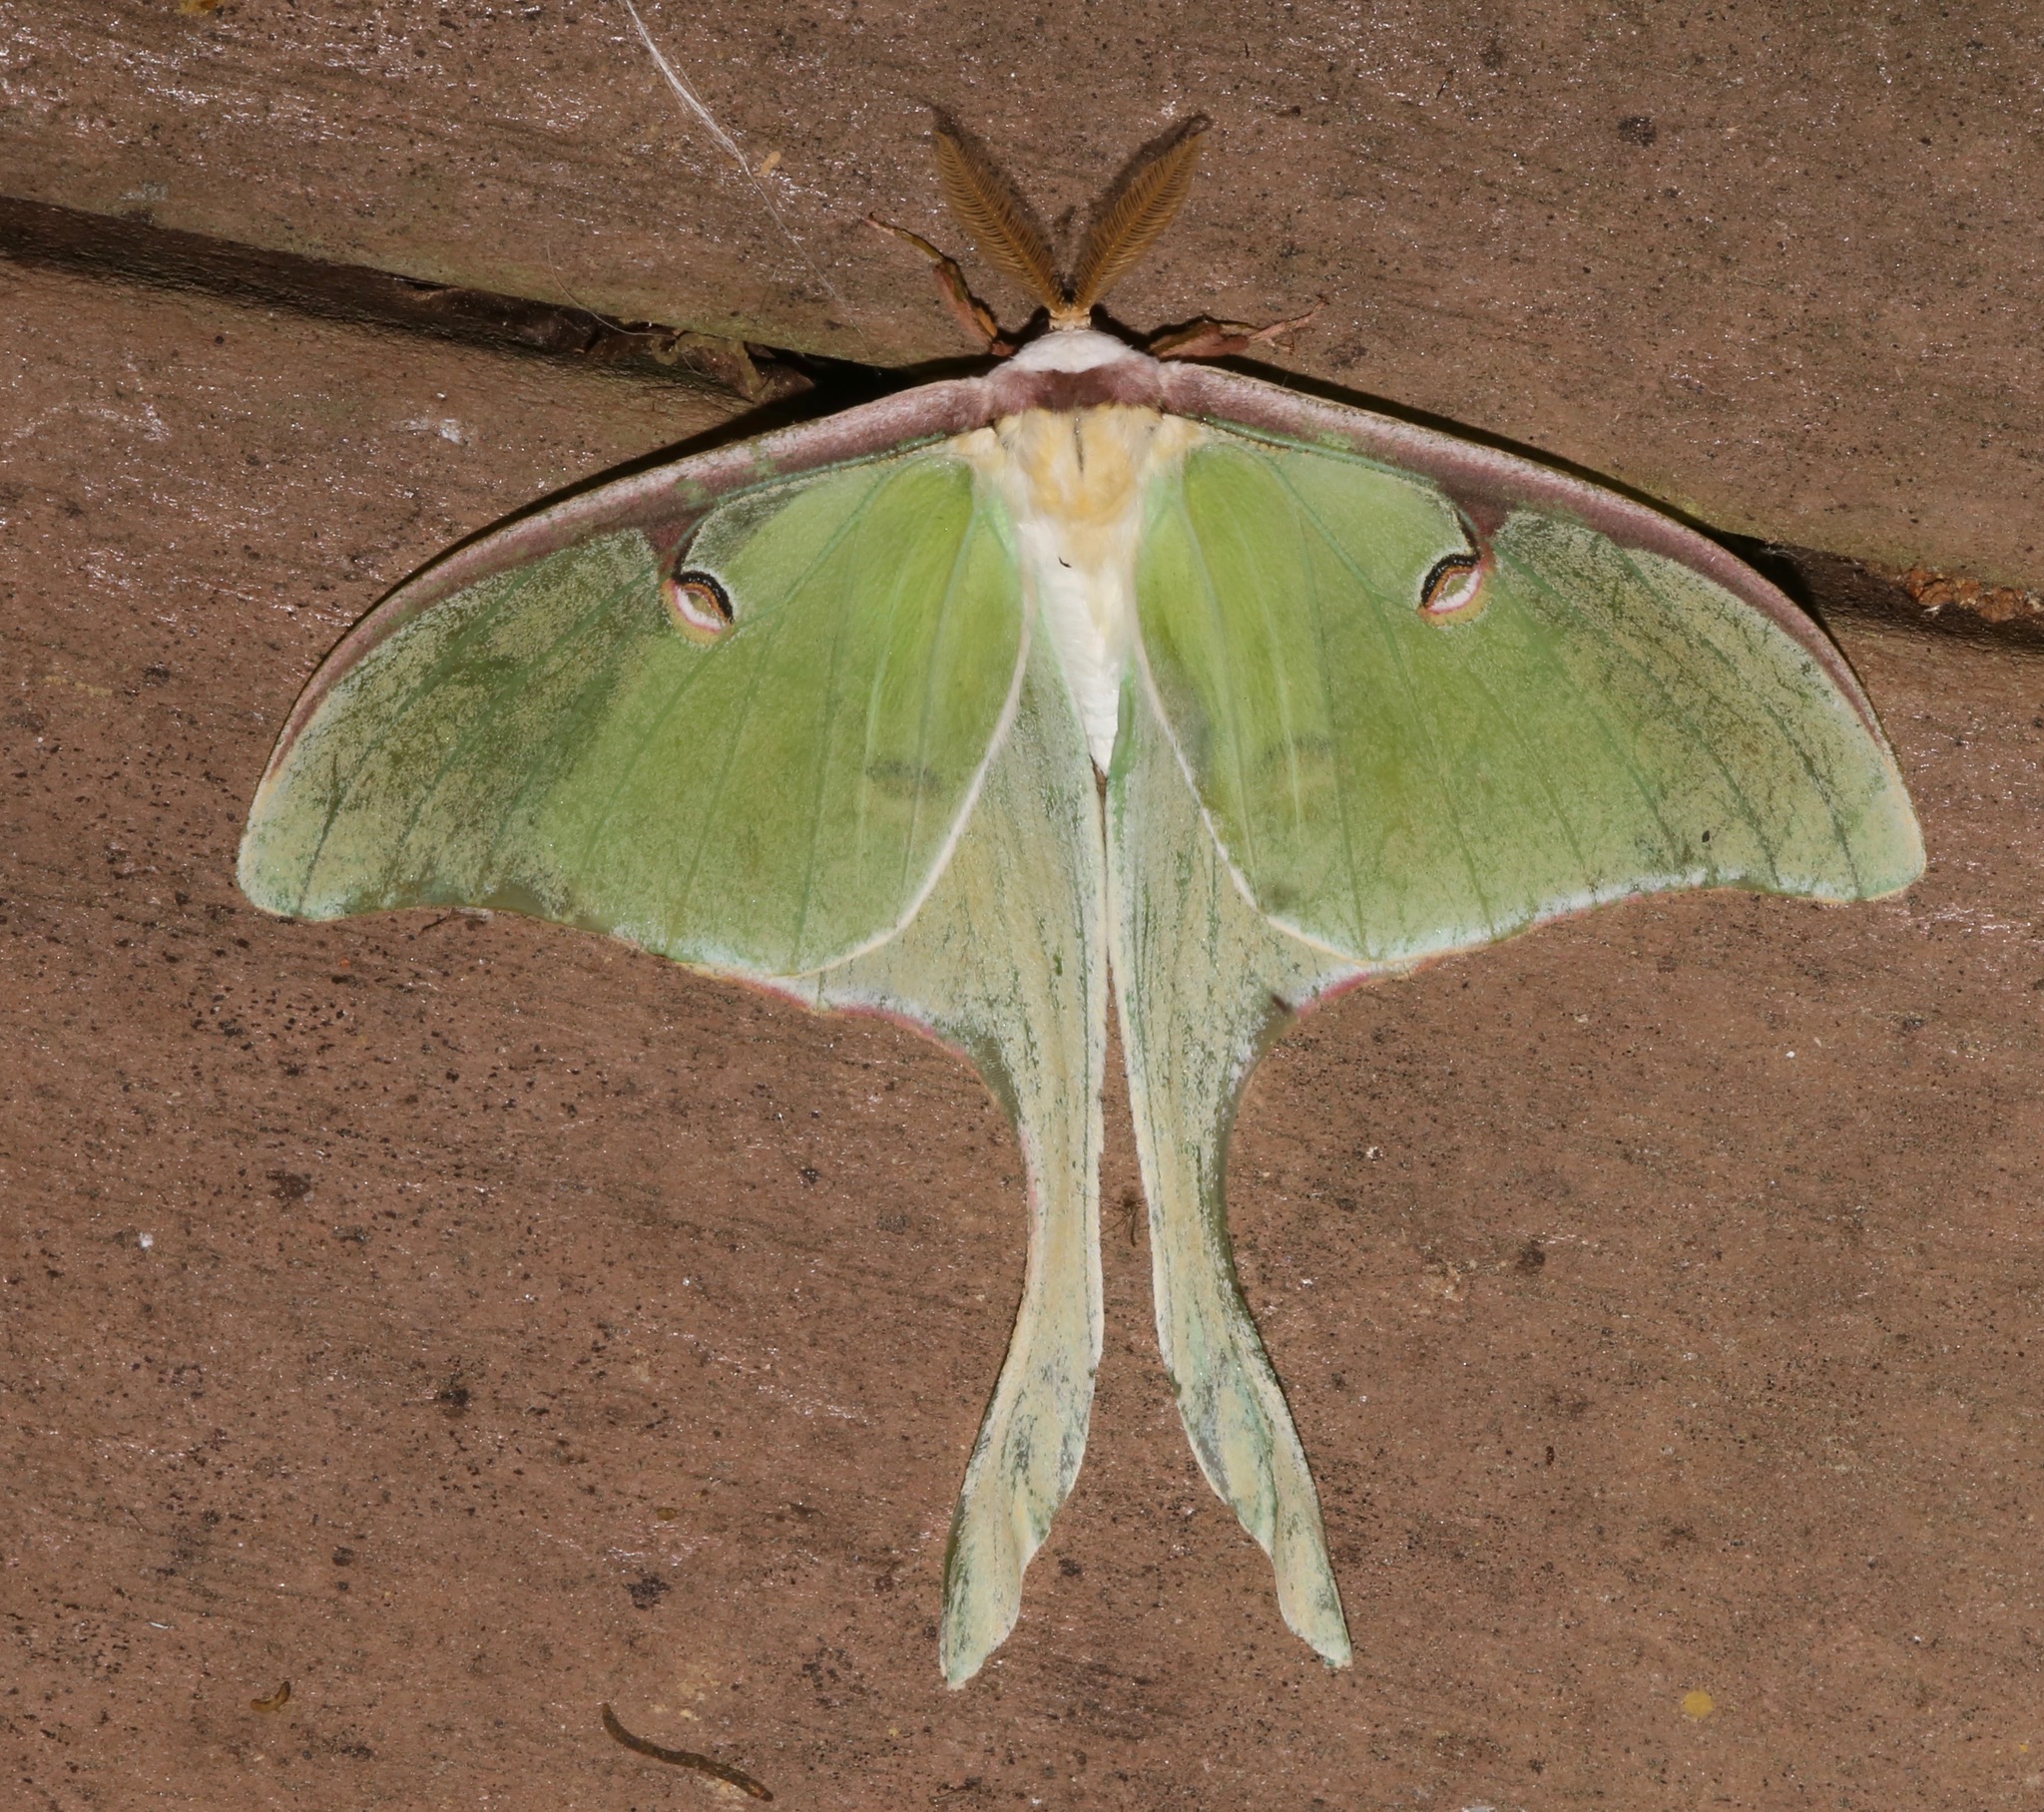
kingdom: Animalia
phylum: Arthropoda
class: Insecta
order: Lepidoptera
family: Saturniidae
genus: Actias
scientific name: Actias luna
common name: Luna moth
